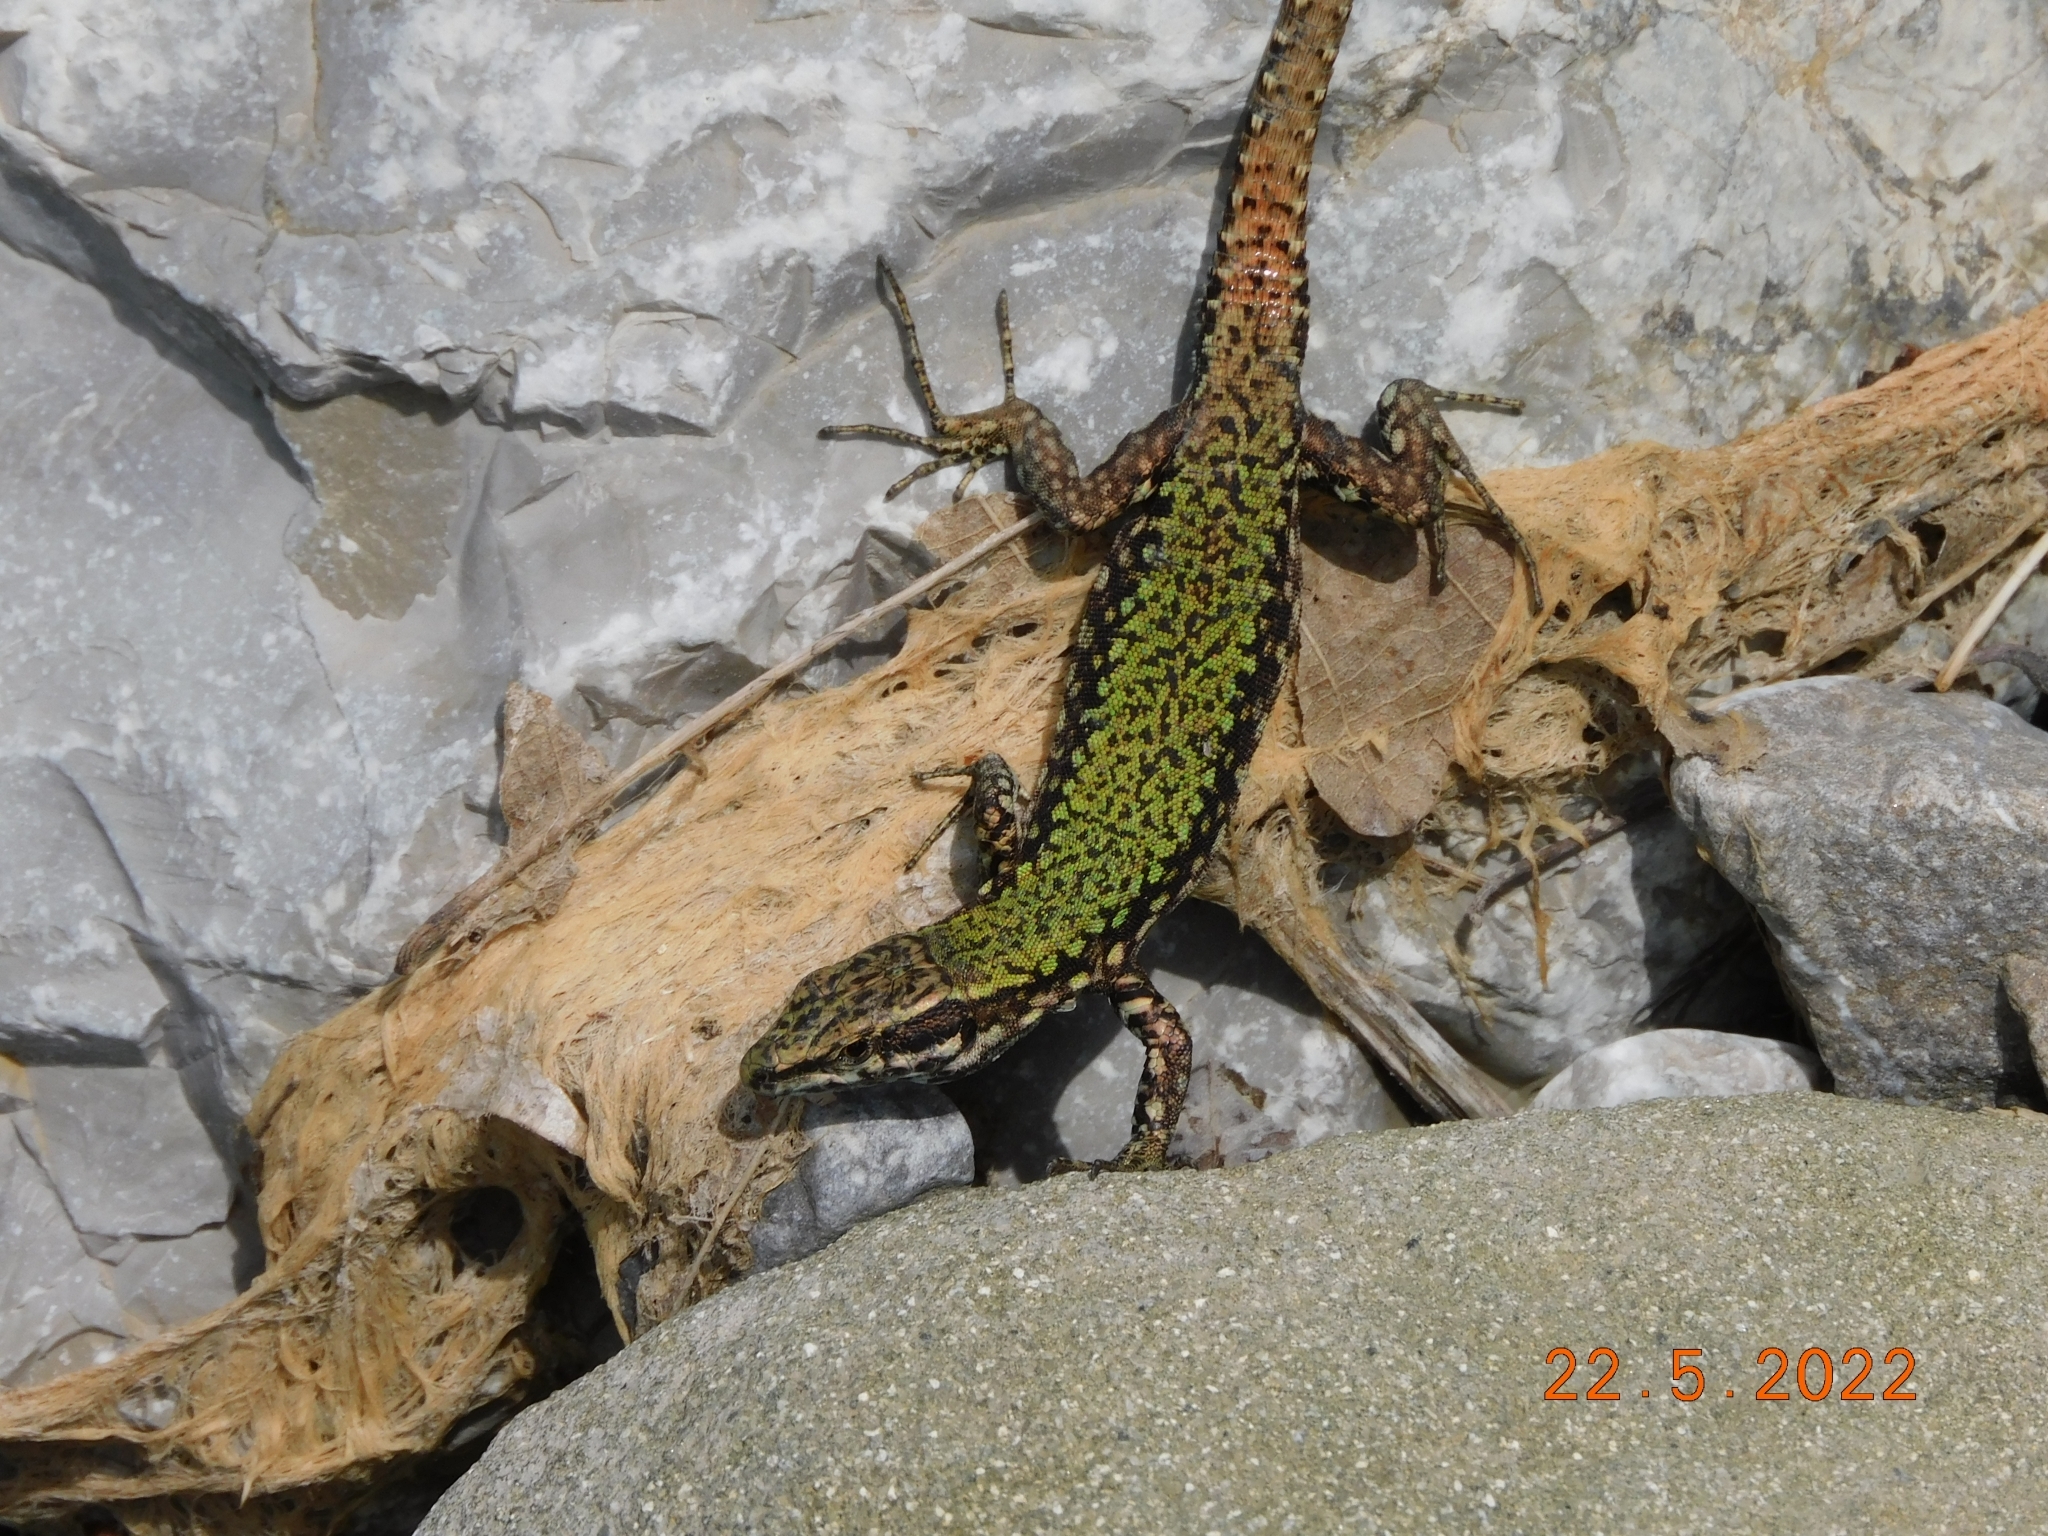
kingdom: Animalia
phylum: Chordata
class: Squamata
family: Lacertidae
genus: Podarcis
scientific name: Podarcis muralis
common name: Common wall lizard
